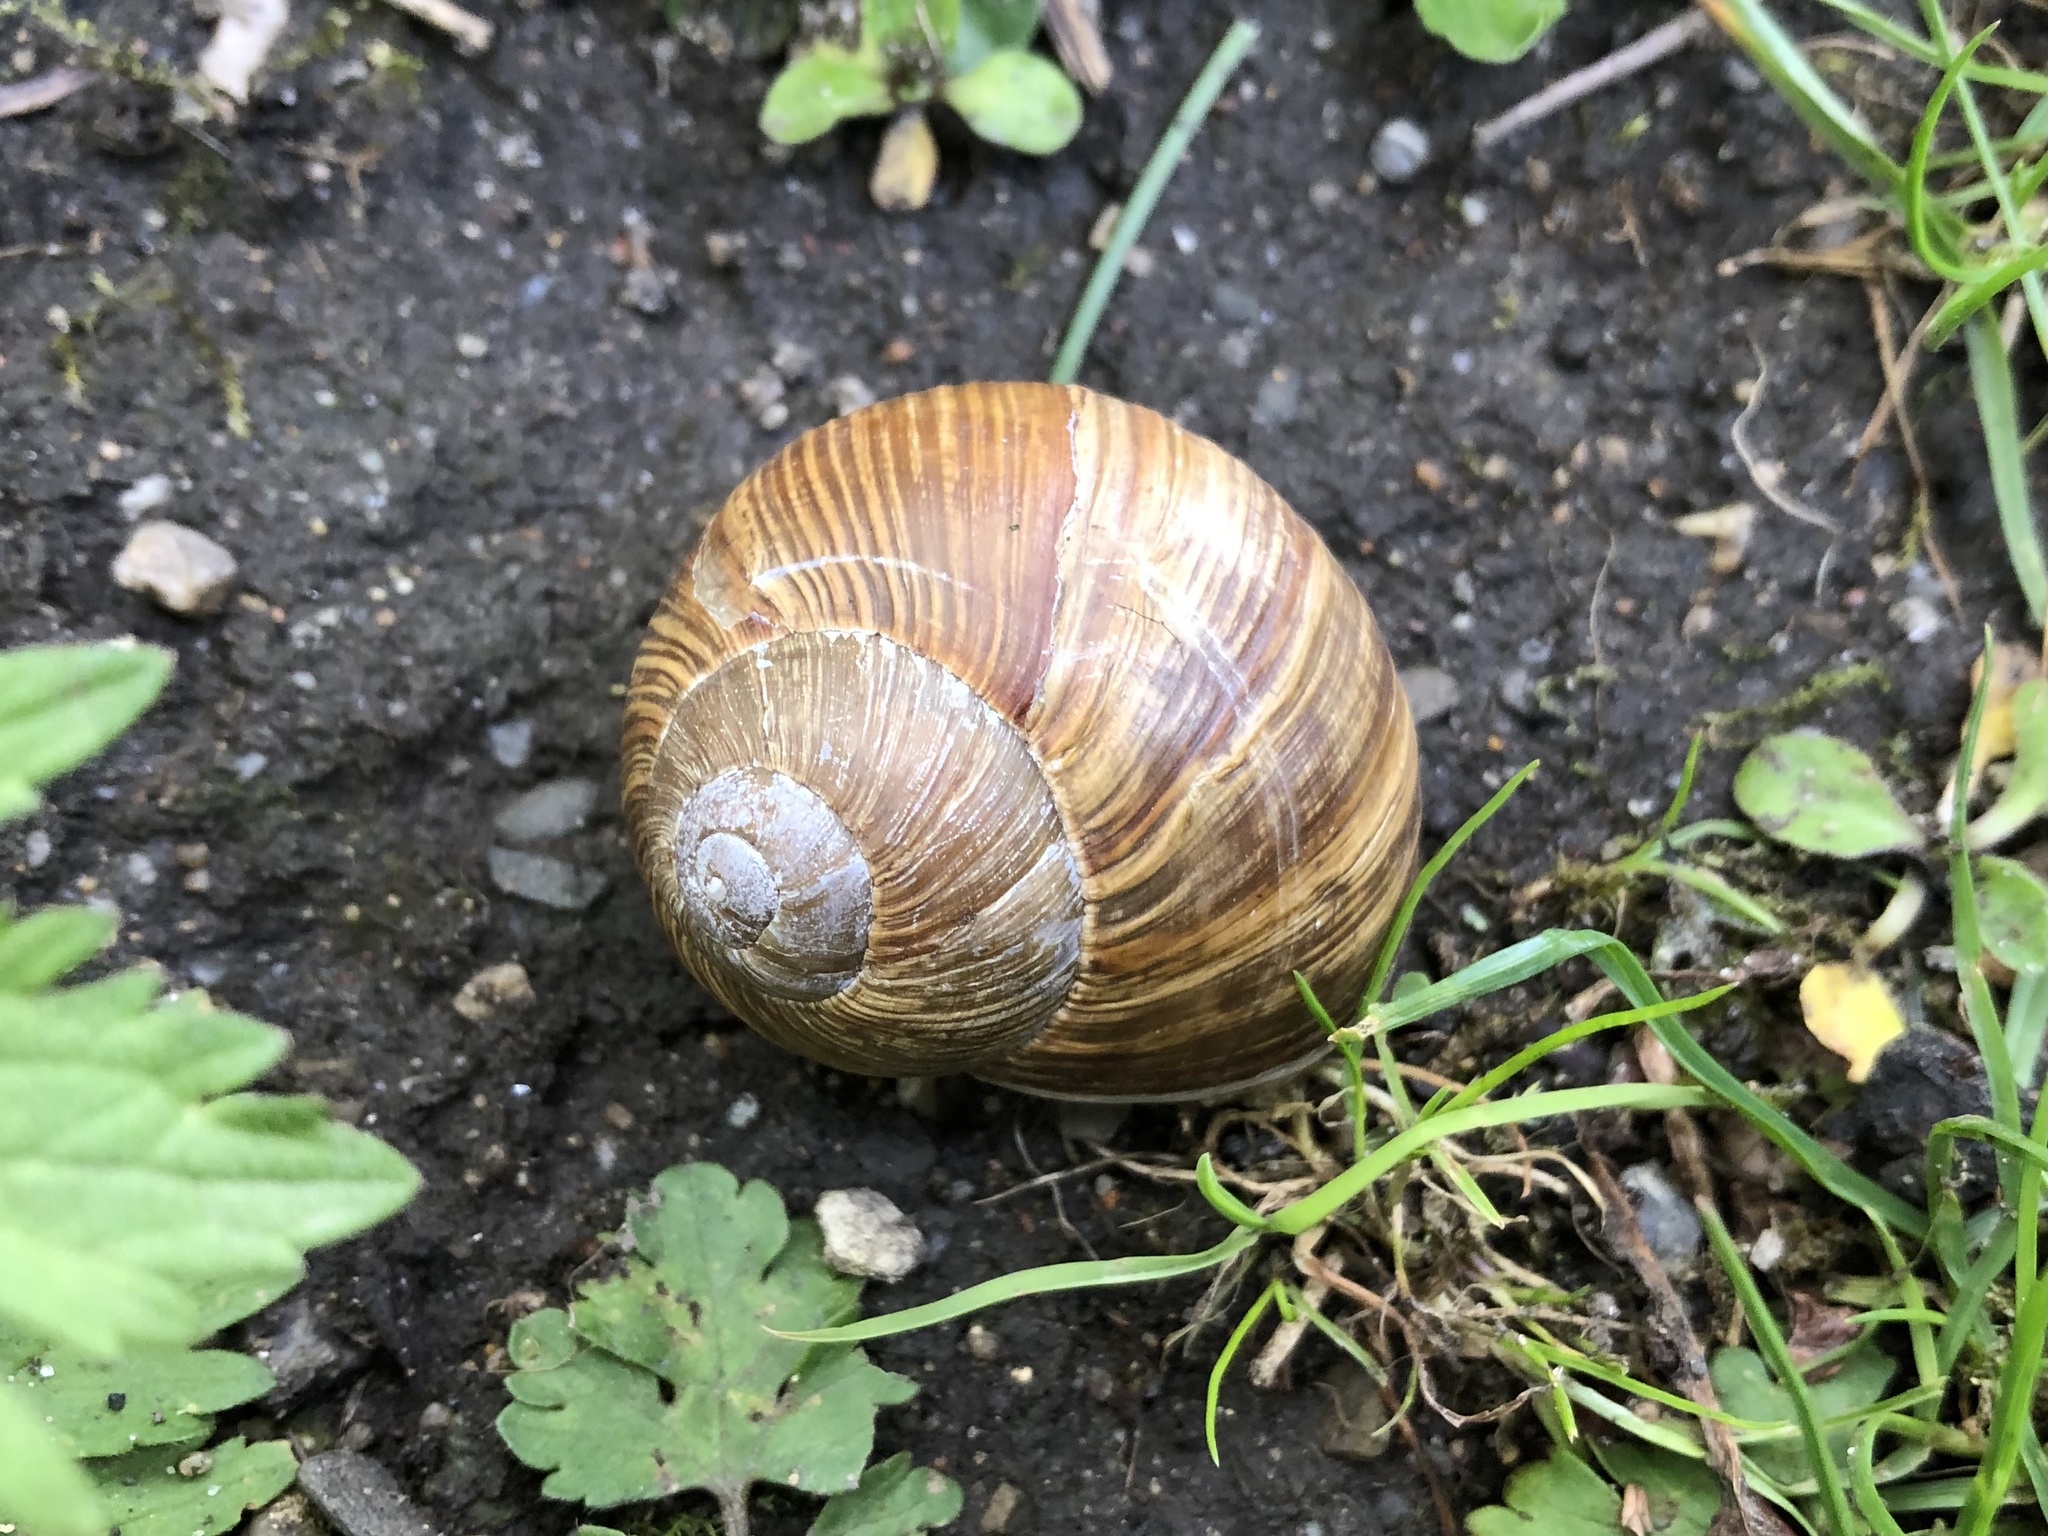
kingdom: Animalia
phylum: Mollusca
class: Gastropoda
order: Stylommatophora
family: Helicidae
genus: Helix
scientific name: Helix pomatia
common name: Roman snail
